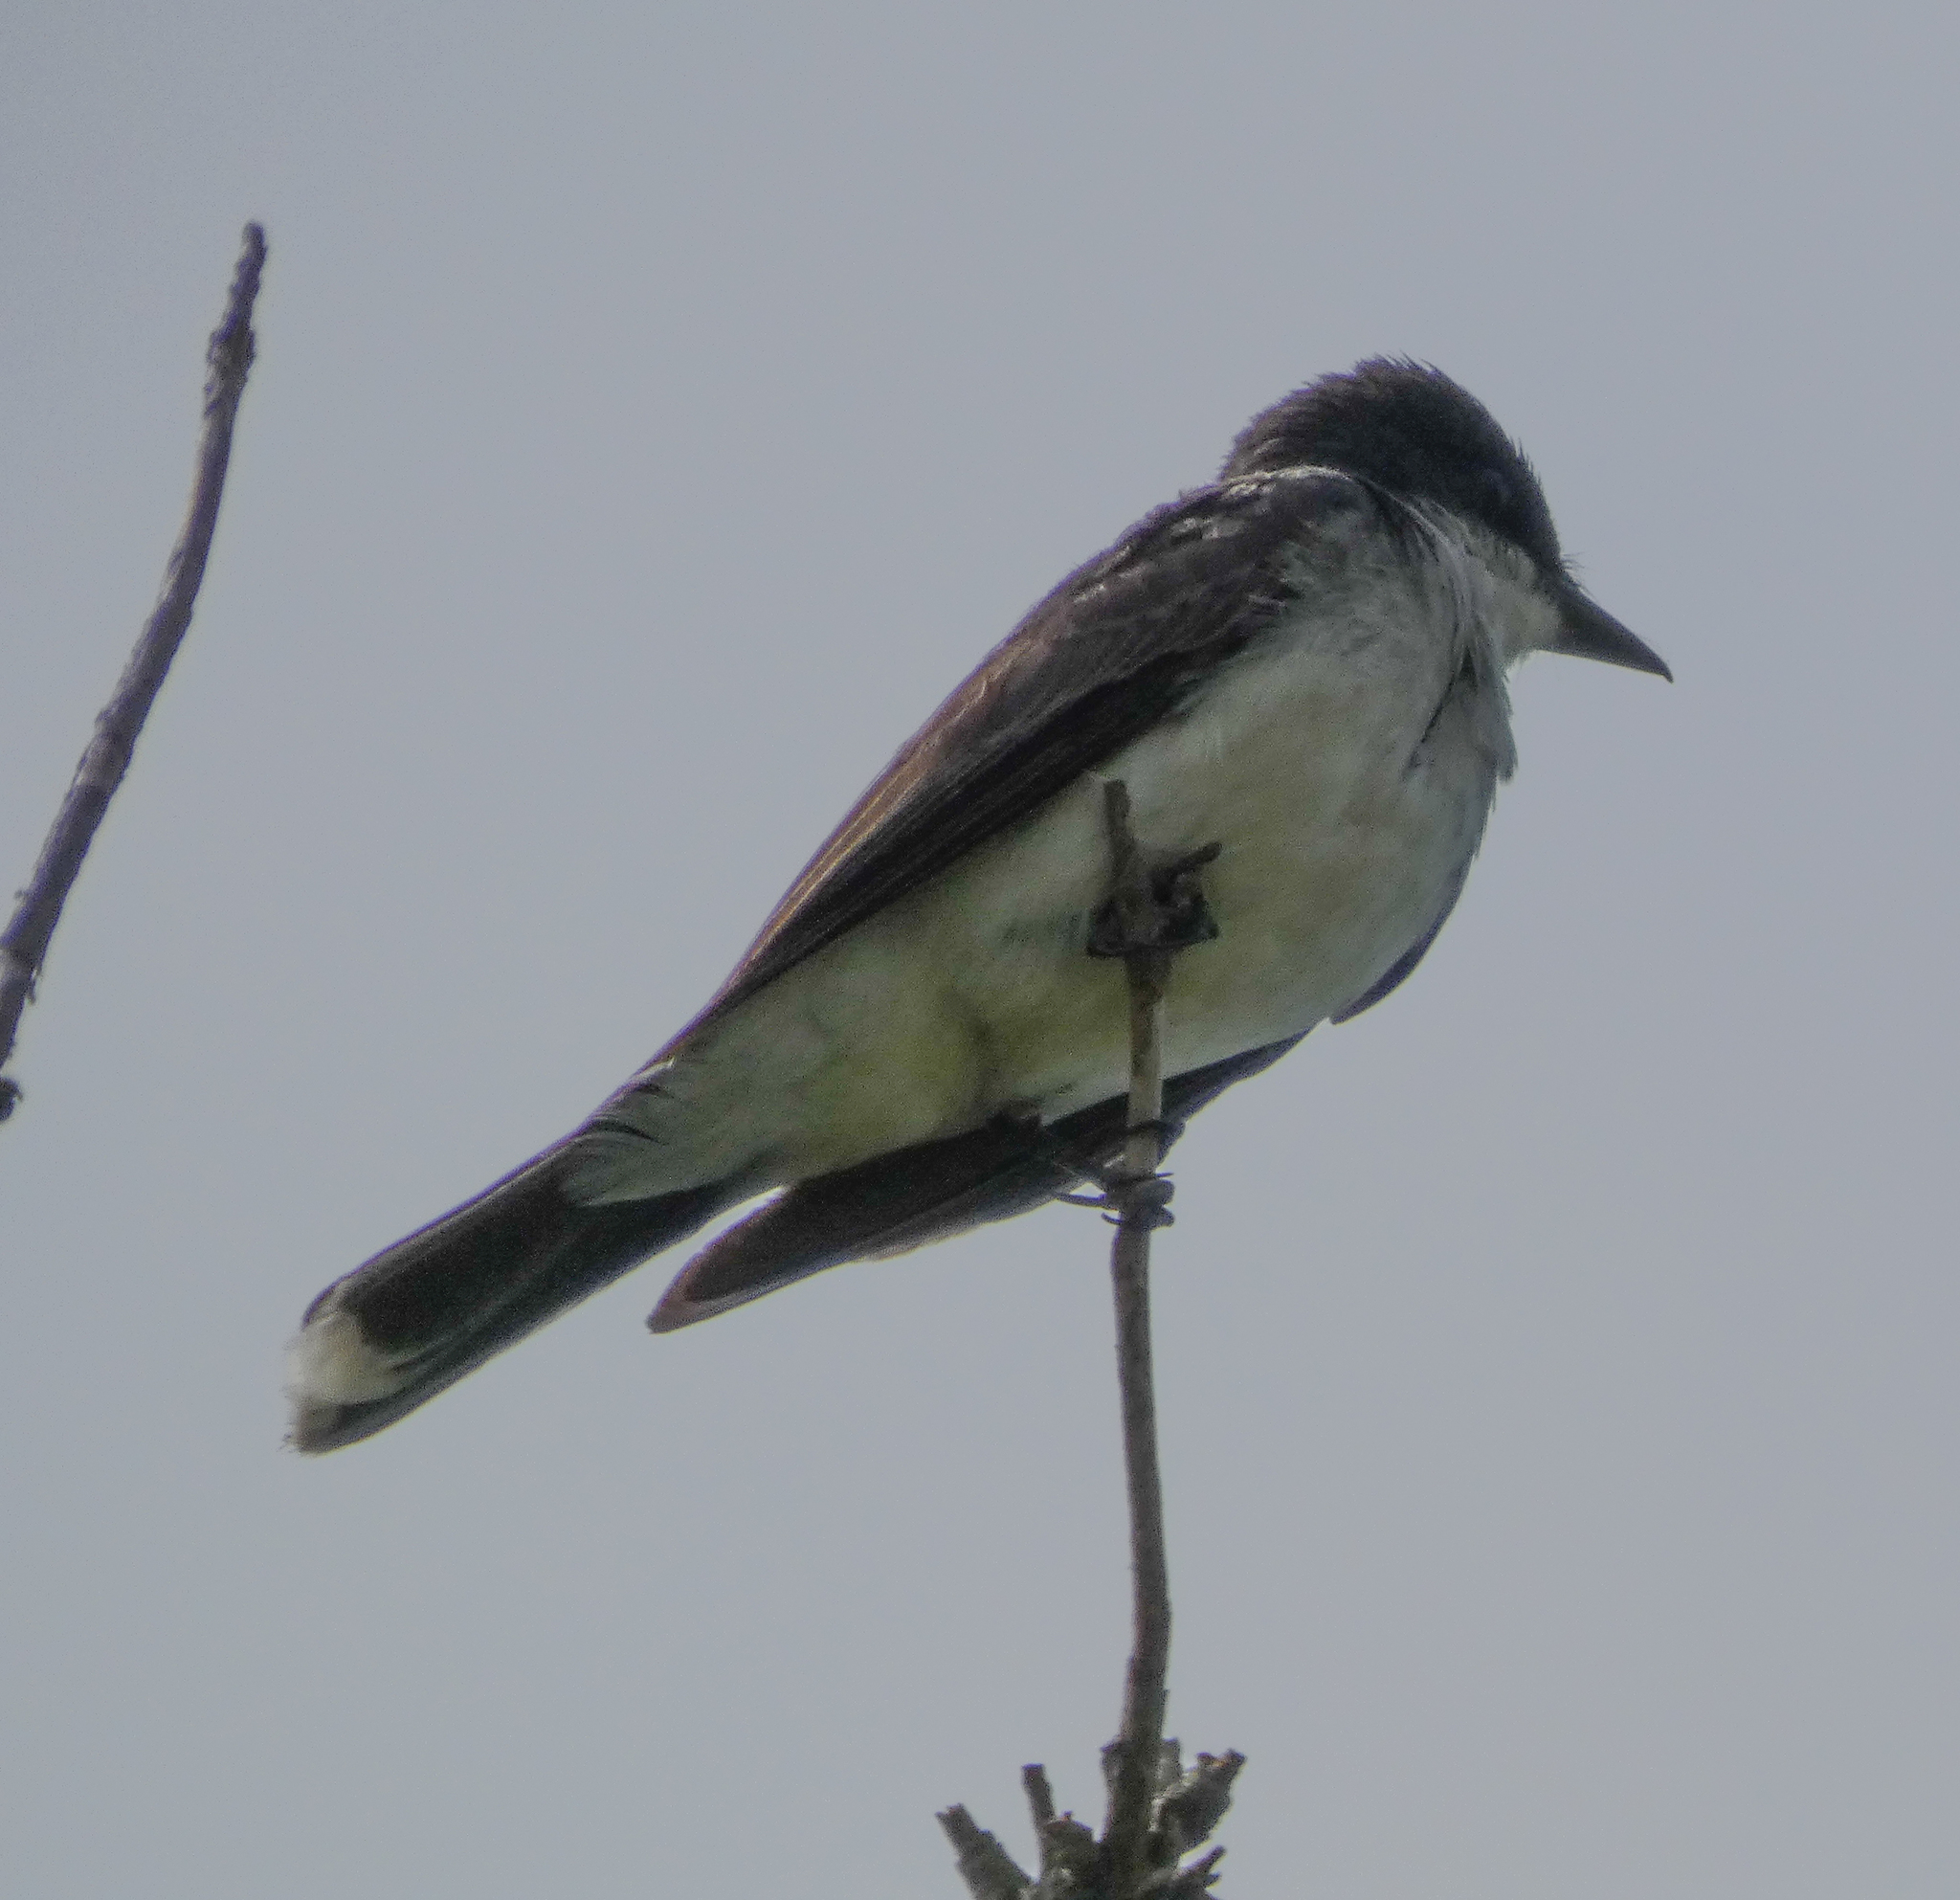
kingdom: Animalia
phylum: Chordata
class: Aves
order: Passeriformes
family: Tyrannidae
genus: Tyrannus
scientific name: Tyrannus tyrannus
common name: Eastern kingbird
